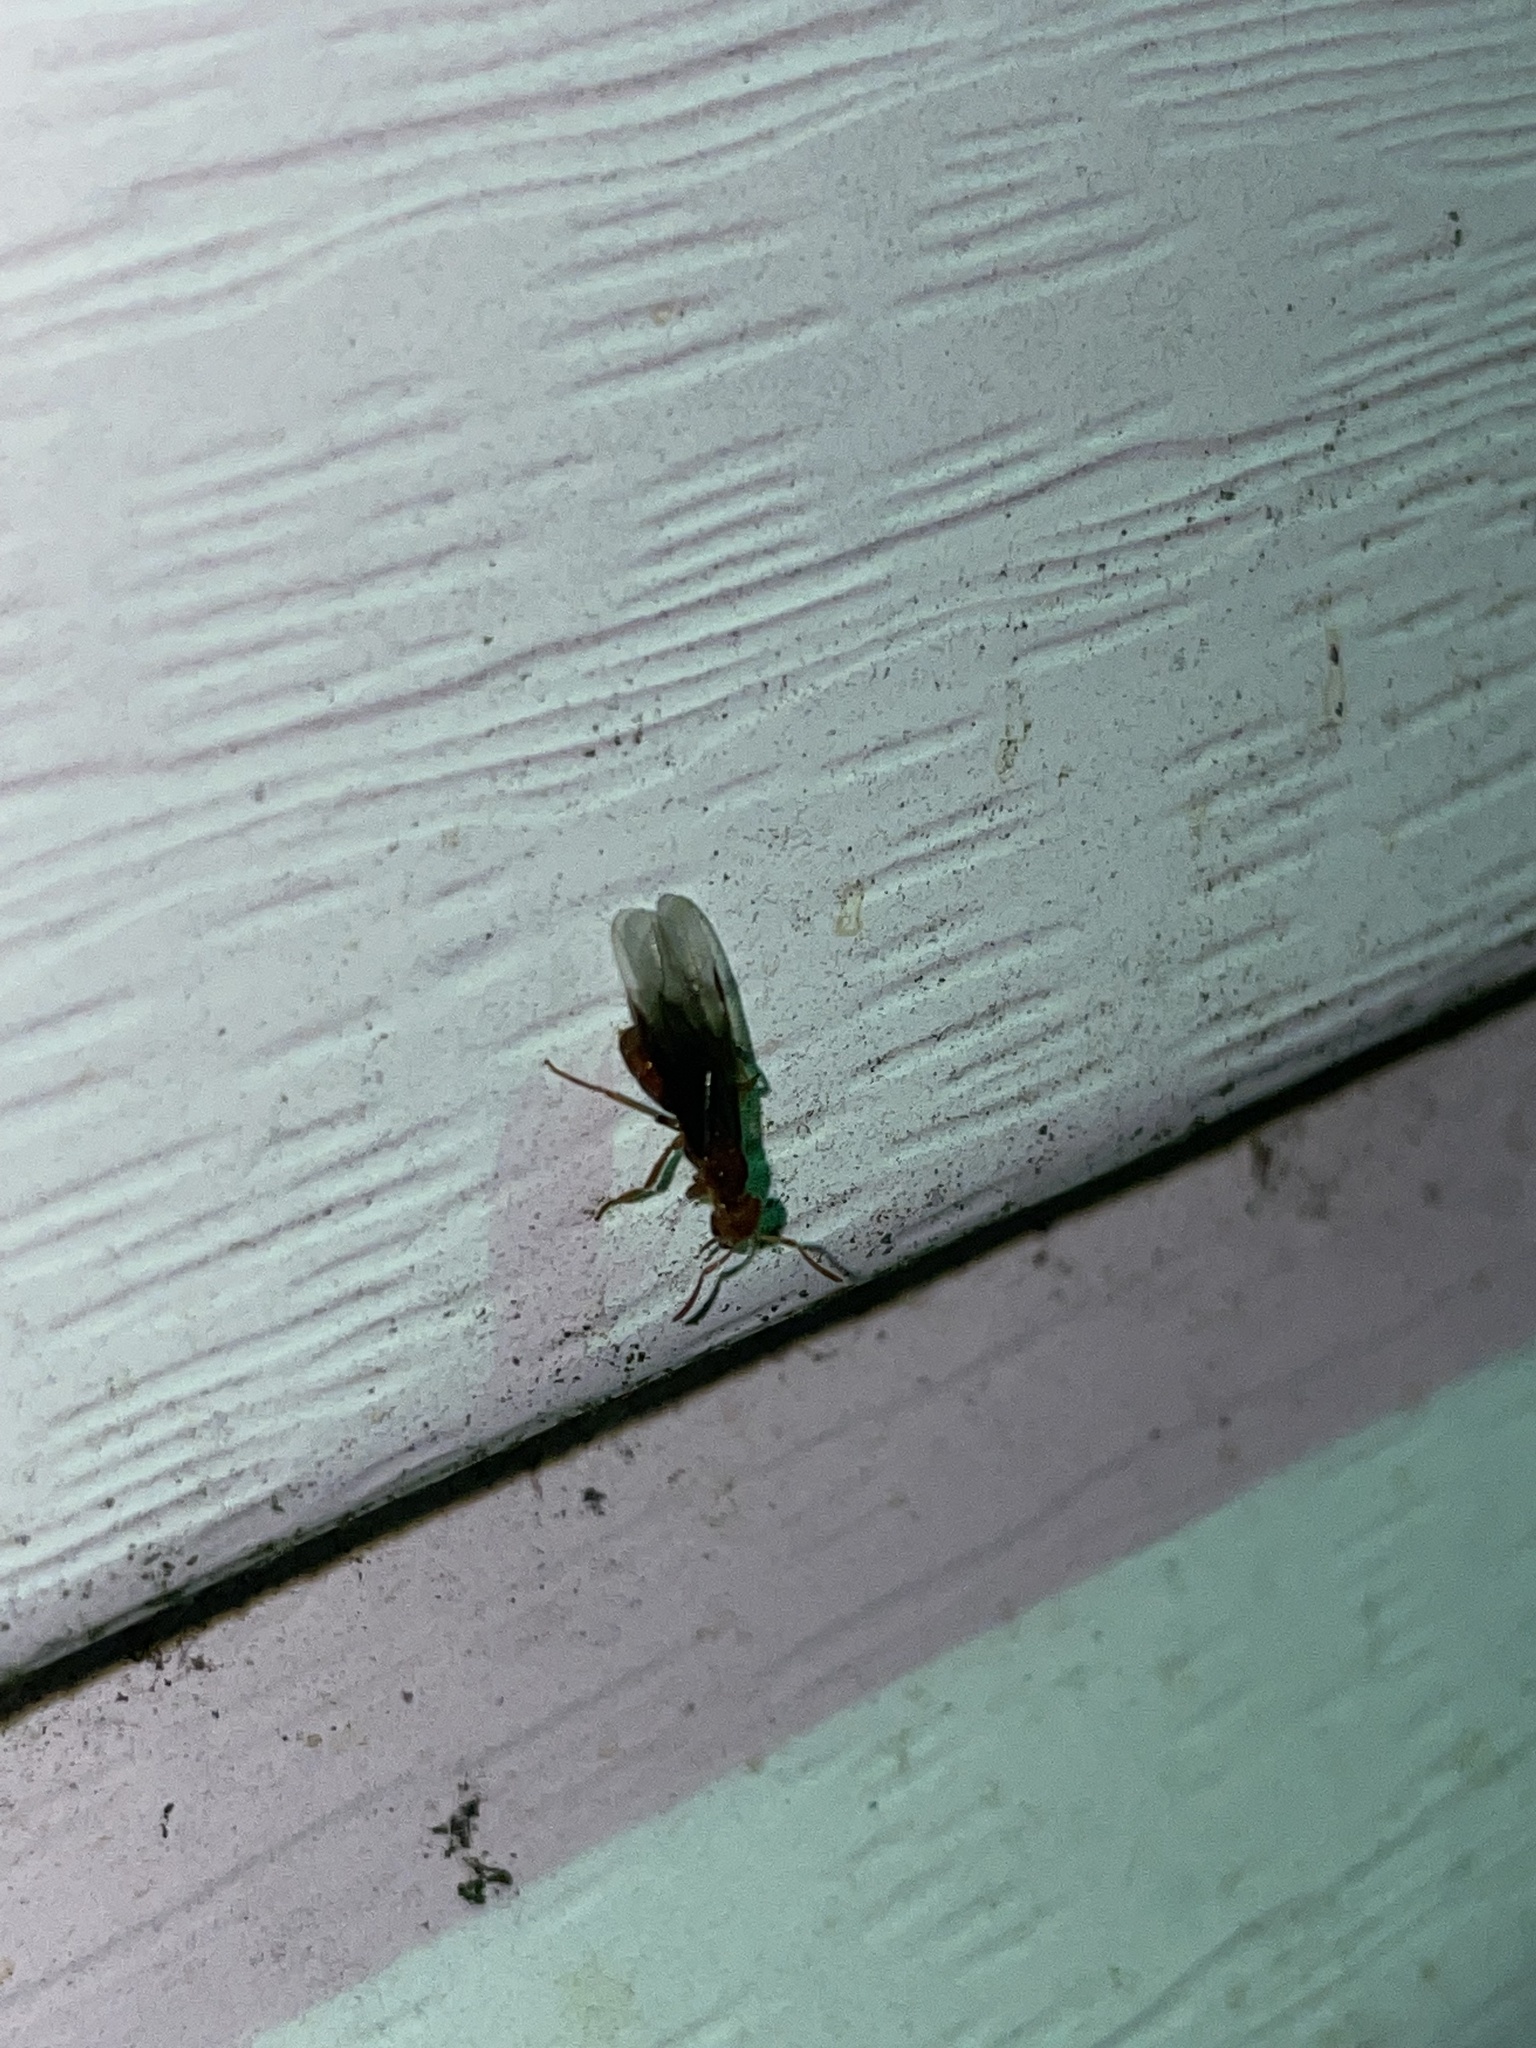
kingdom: Animalia
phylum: Arthropoda
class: Insecta
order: Hymenoptera
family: Formicidae
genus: Acanthomyops
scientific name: Acanthomyops interjectus
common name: Larger yellow ant
